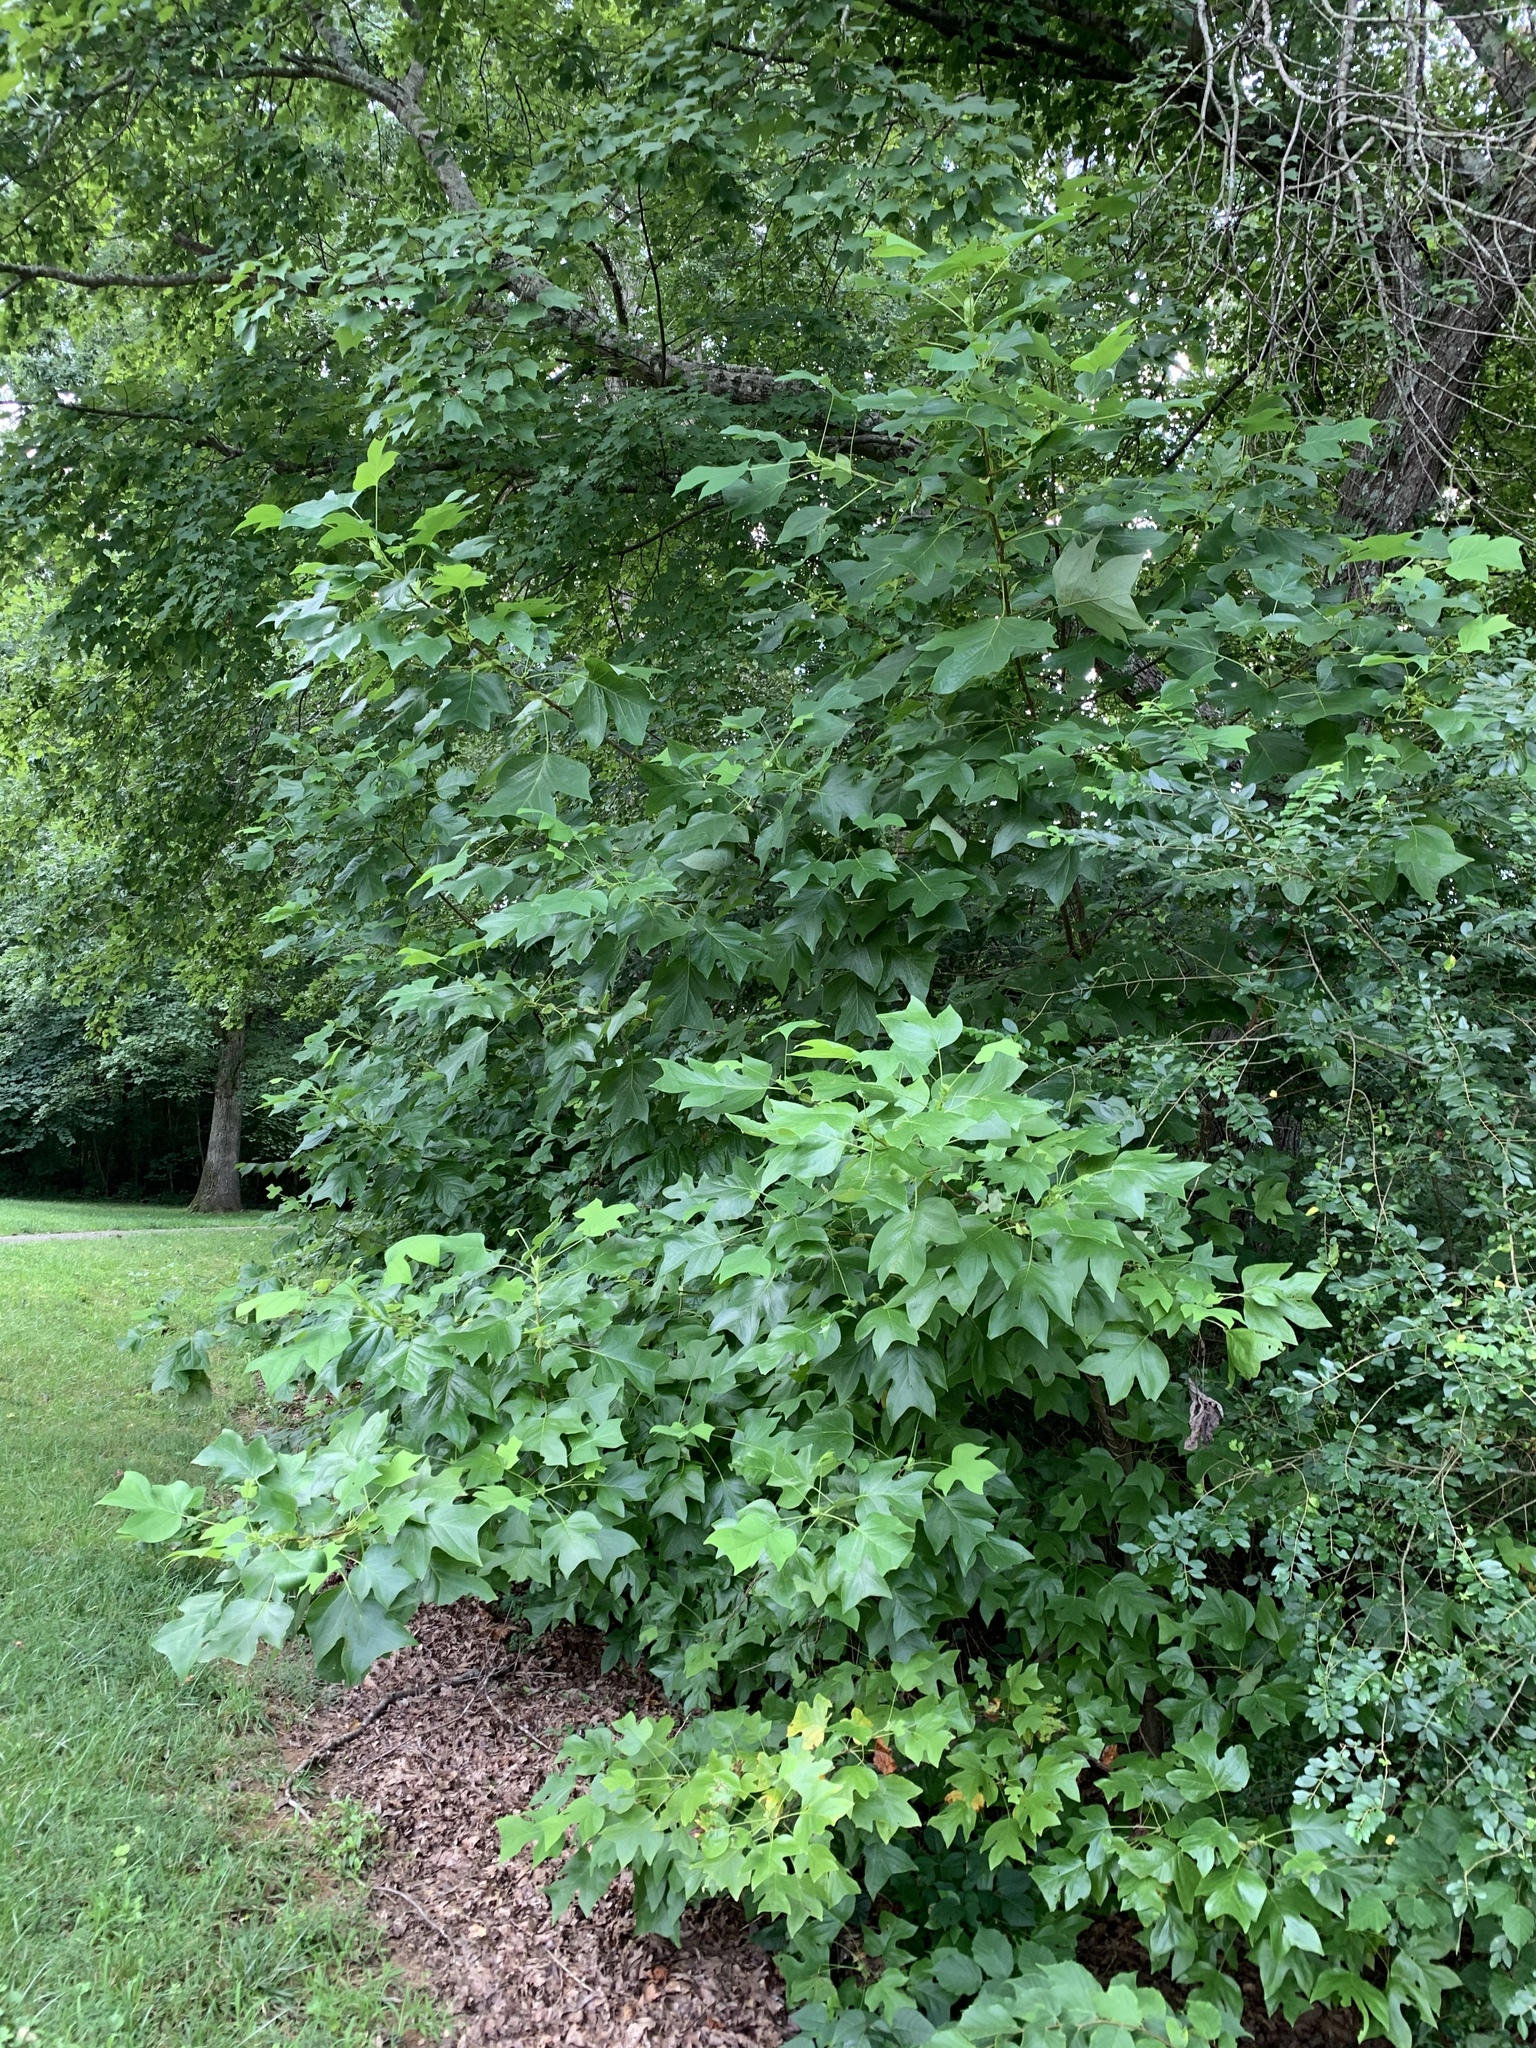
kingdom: Plantae
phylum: Tracheophyta
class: Magnoliopsida
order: Magnoliales
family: Magnoliaceae
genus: Liriodendron
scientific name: Liriodendron tulipifera
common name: Tulip tree
